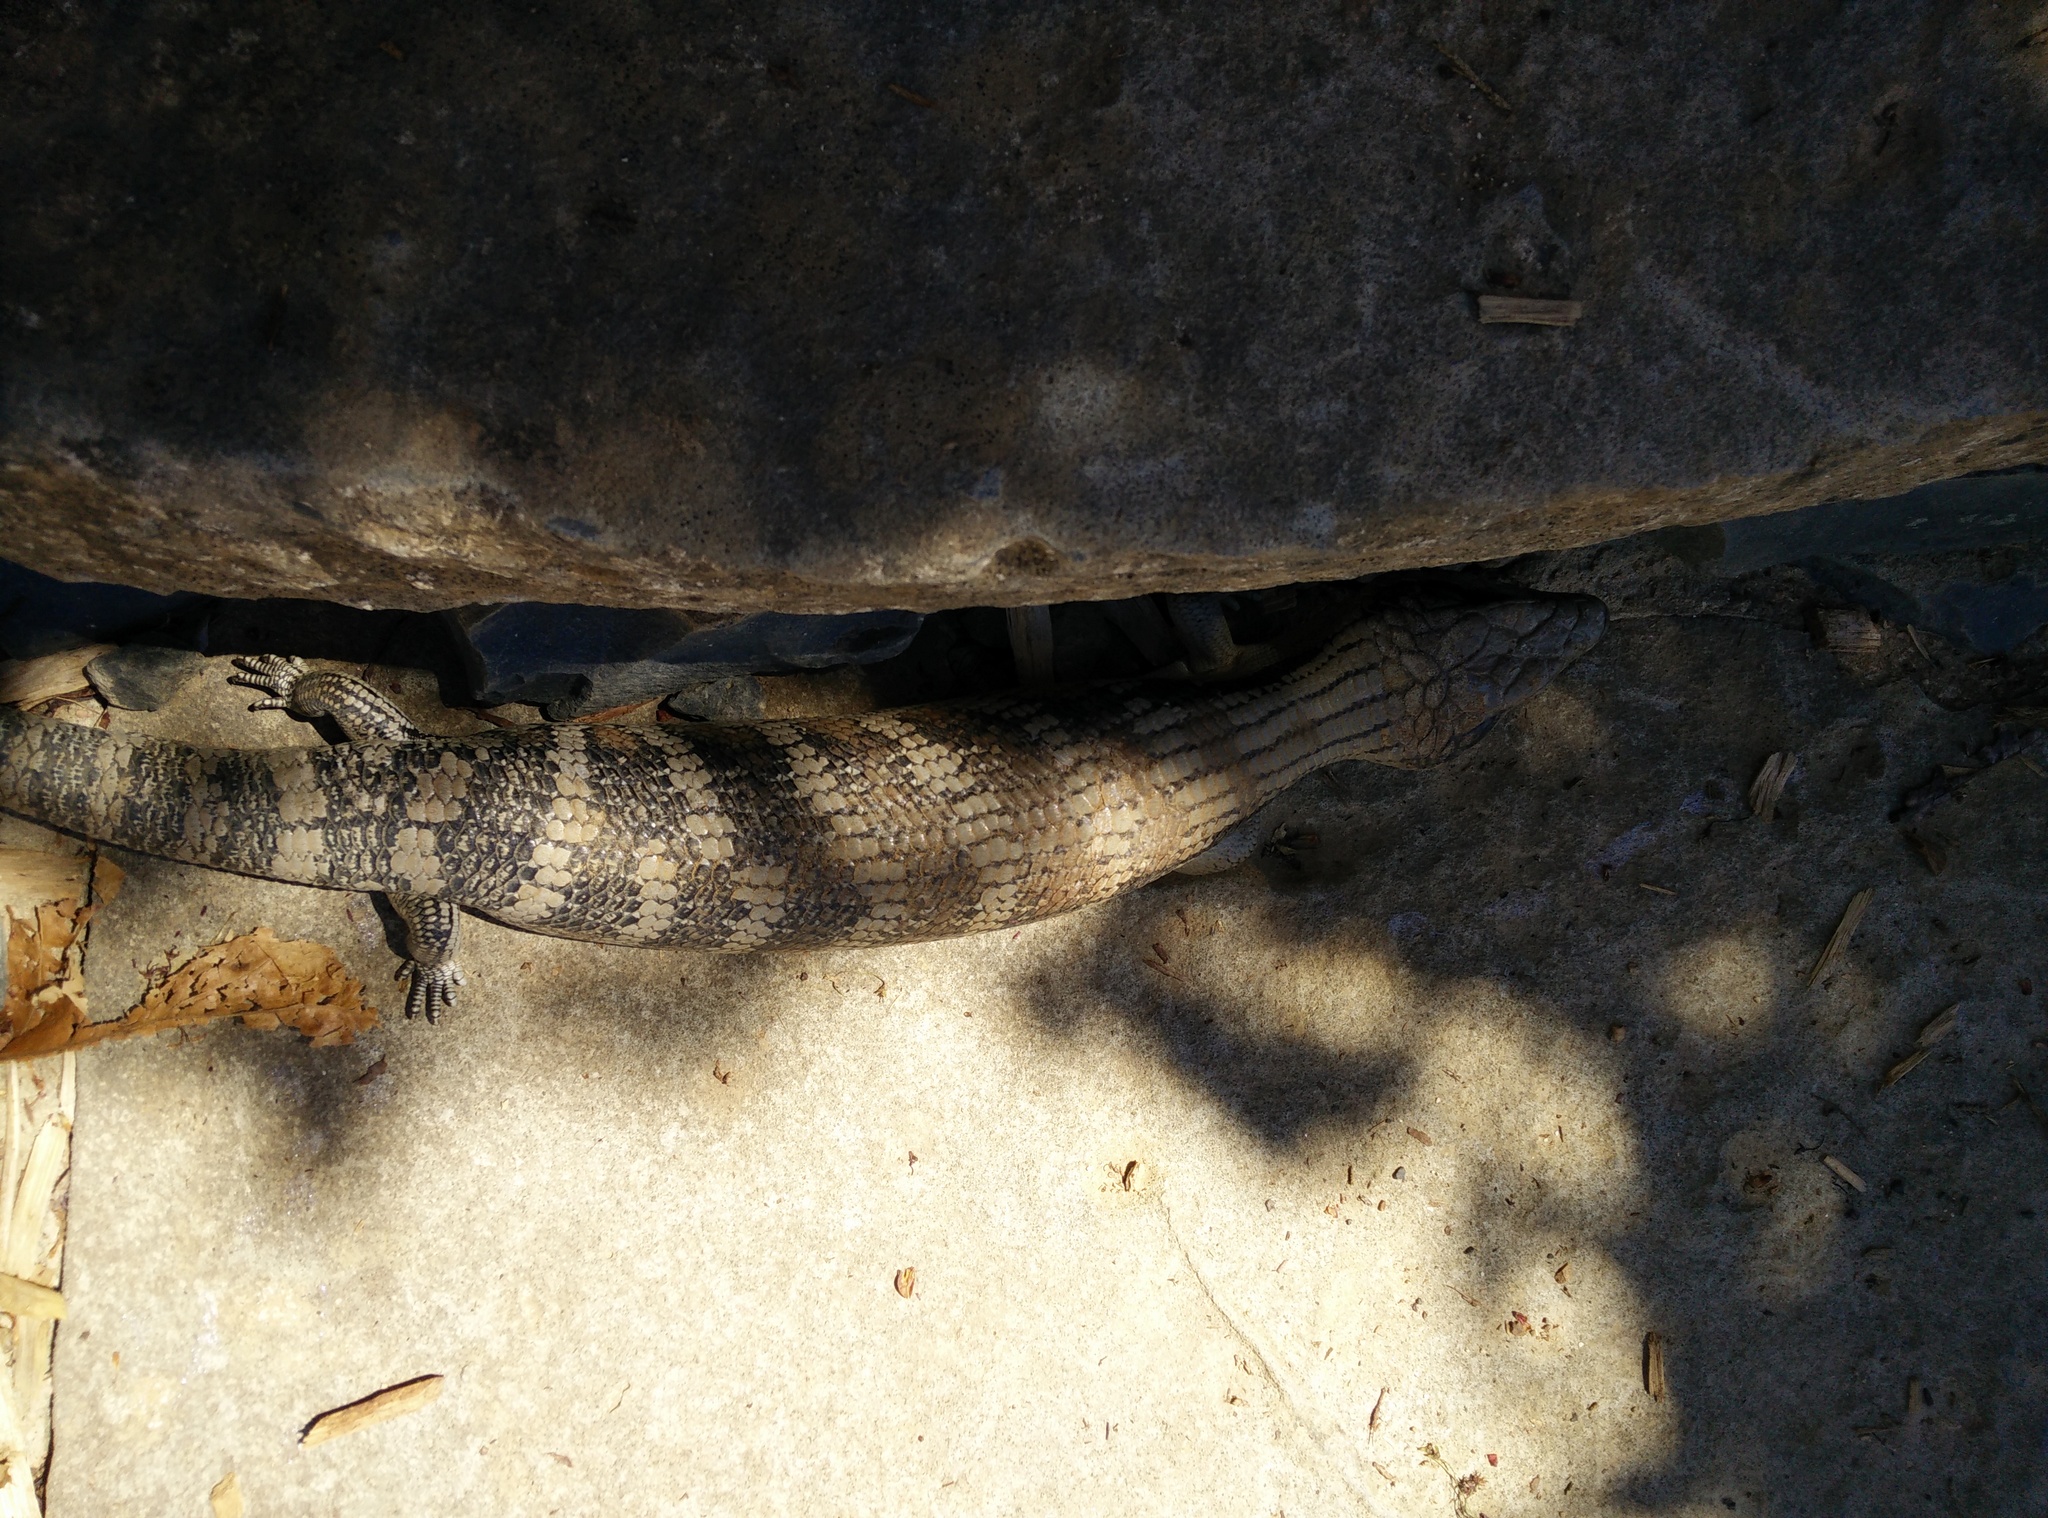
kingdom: Animalia
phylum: Chordata
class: Squamata
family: Scincidae
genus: Tiliqua
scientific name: Tiliqua scincoides
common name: Common bluetongue
